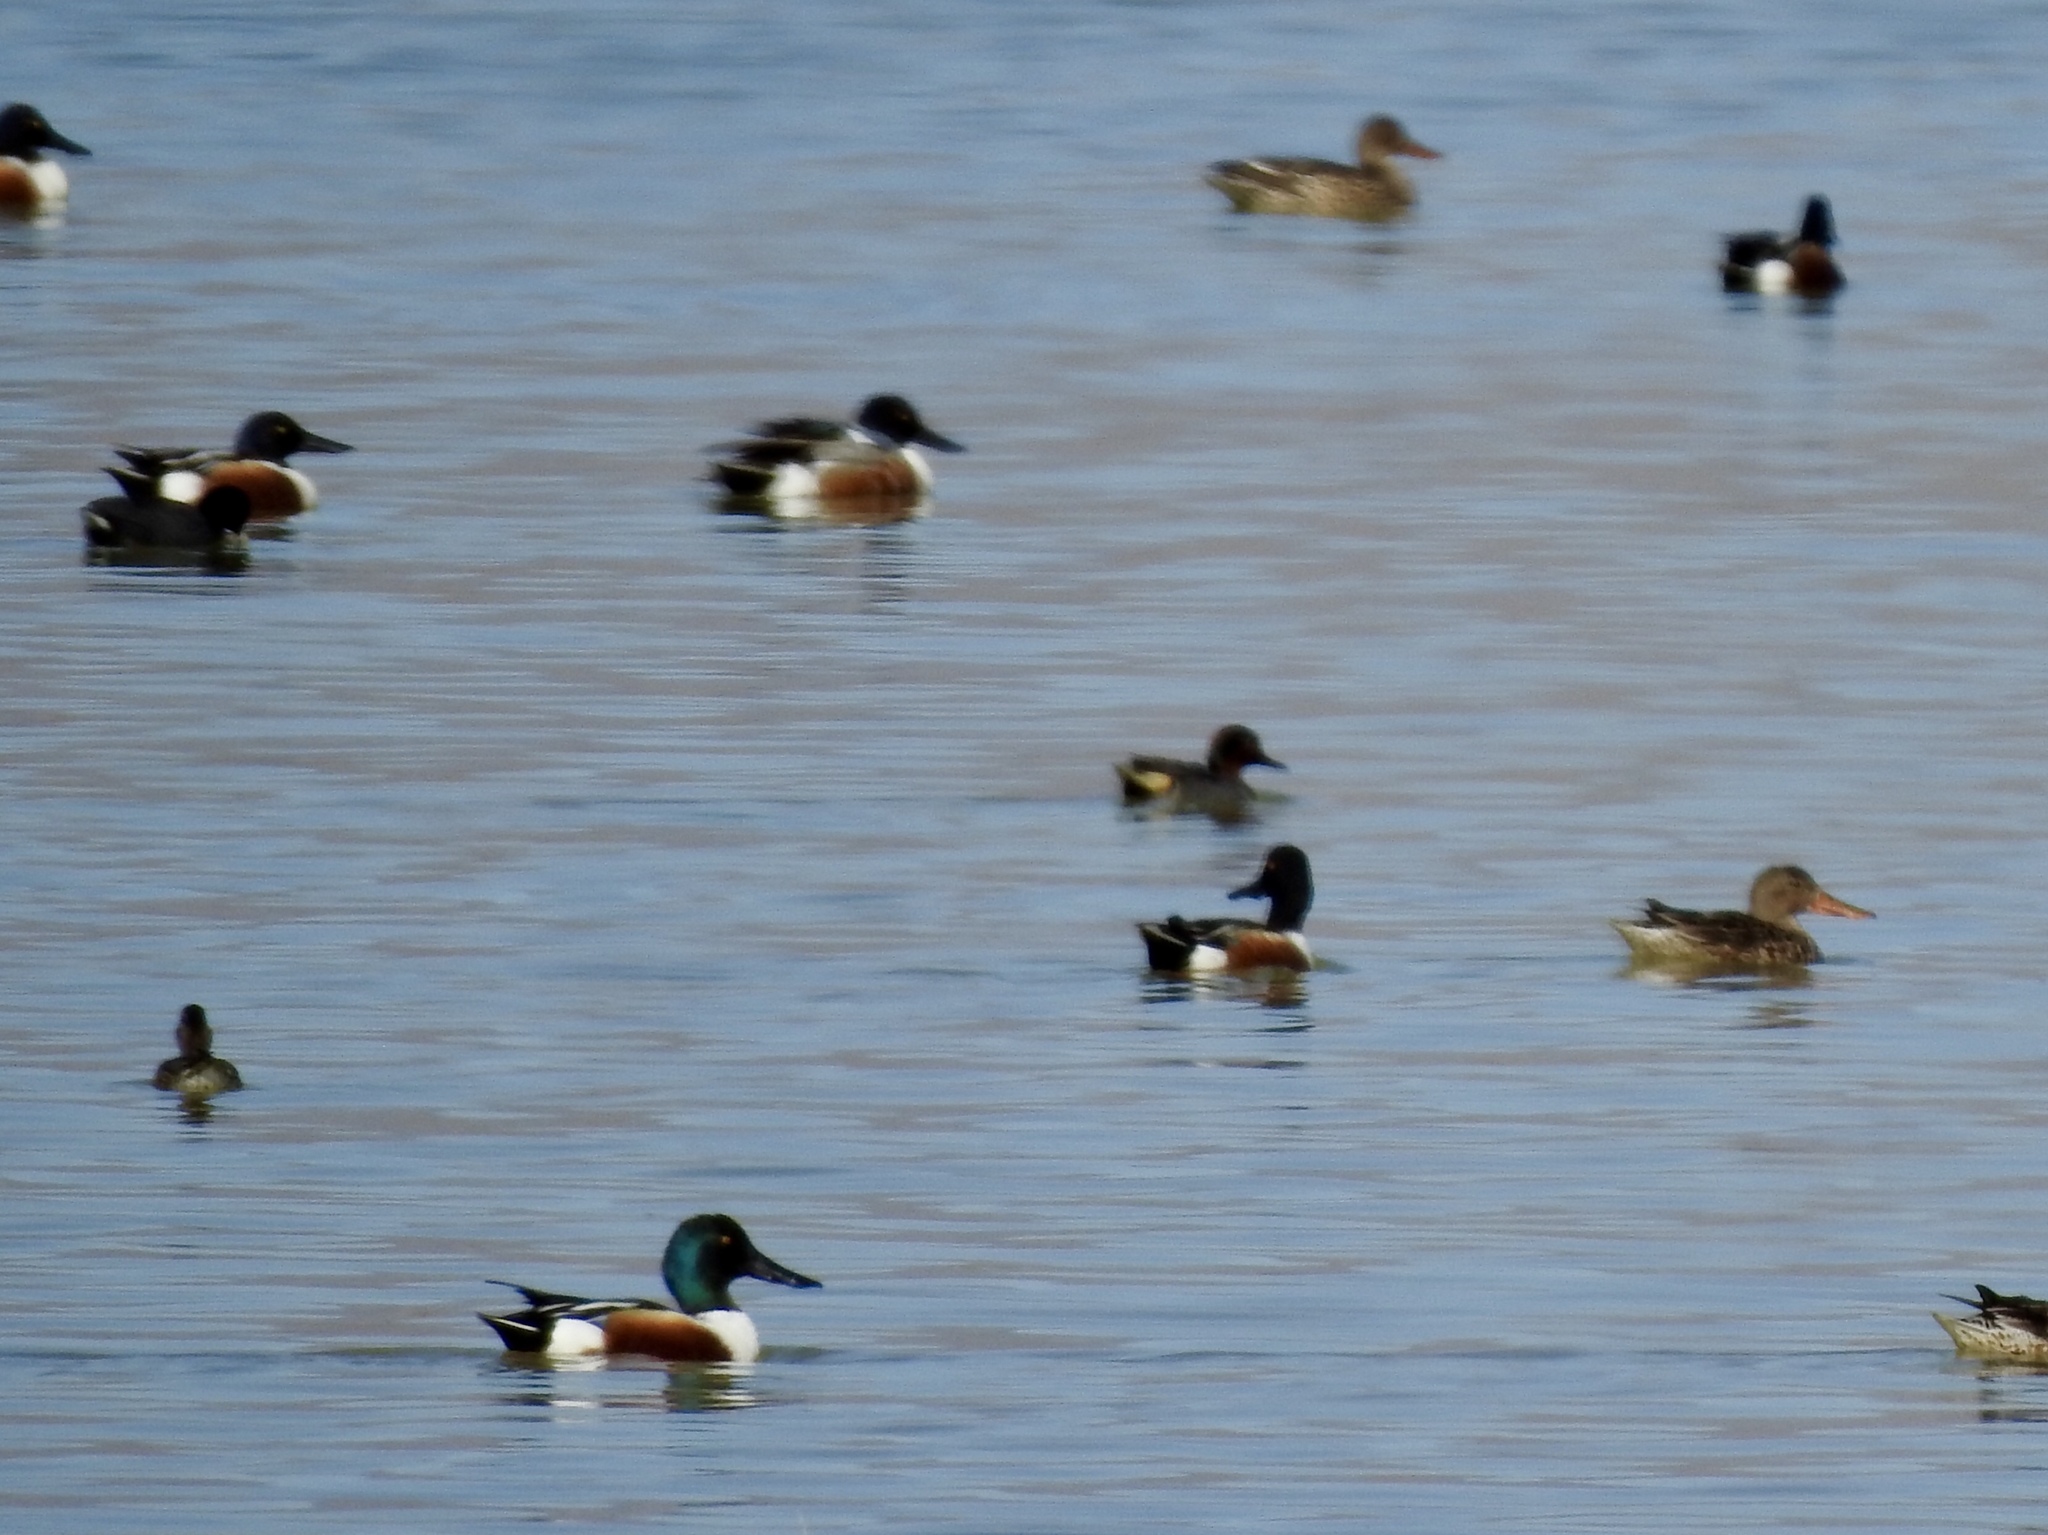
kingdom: Animalia
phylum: Chordata
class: Aves
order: Anseriformes
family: Anatidae
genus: Spatula
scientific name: Spatula clypeata
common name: Northern shoveler
